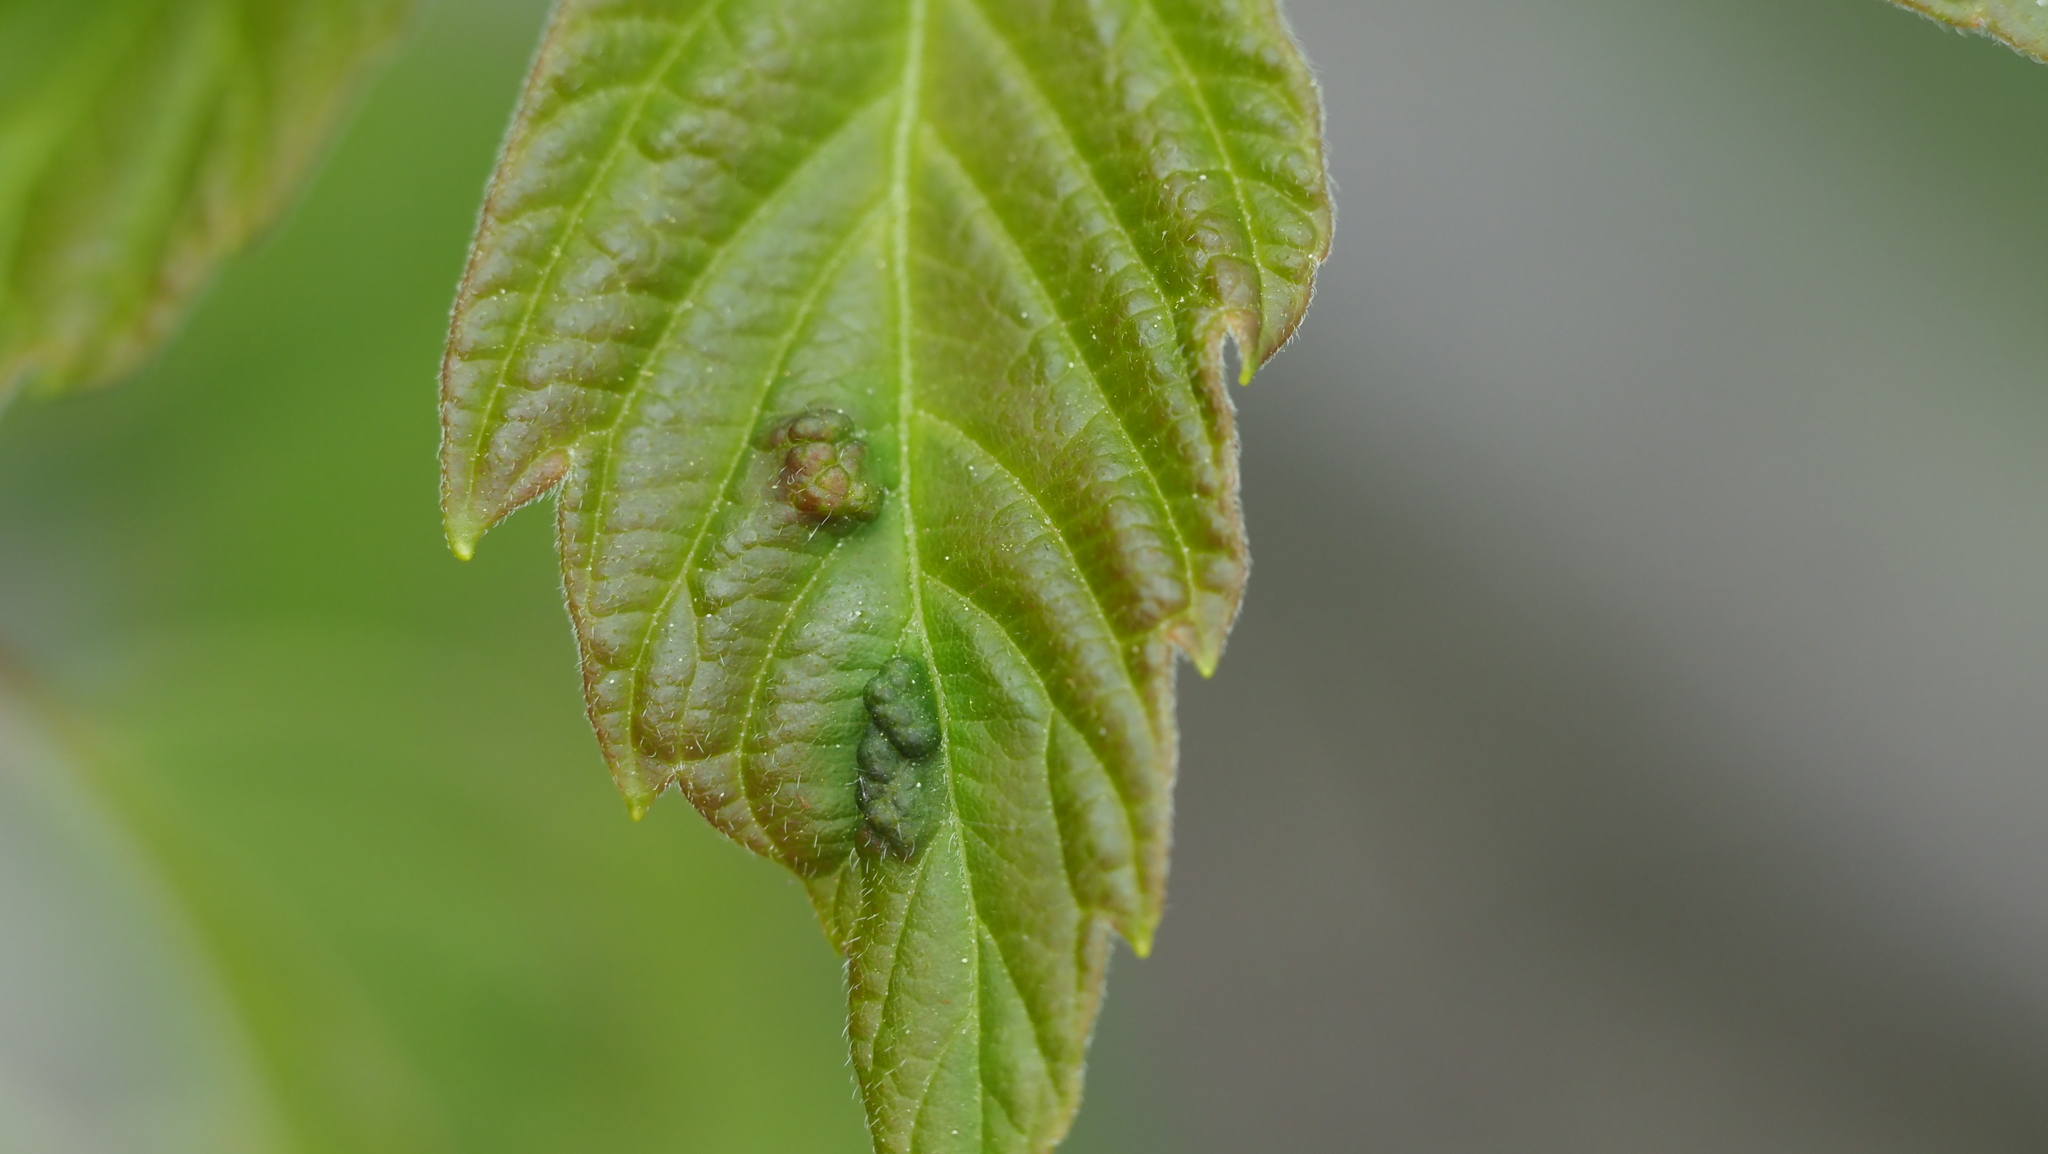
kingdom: Animalia
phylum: Arthropoda
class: Arachnida
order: Trombidiformes
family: Eriophyidae
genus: Aceria
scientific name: Aceria
